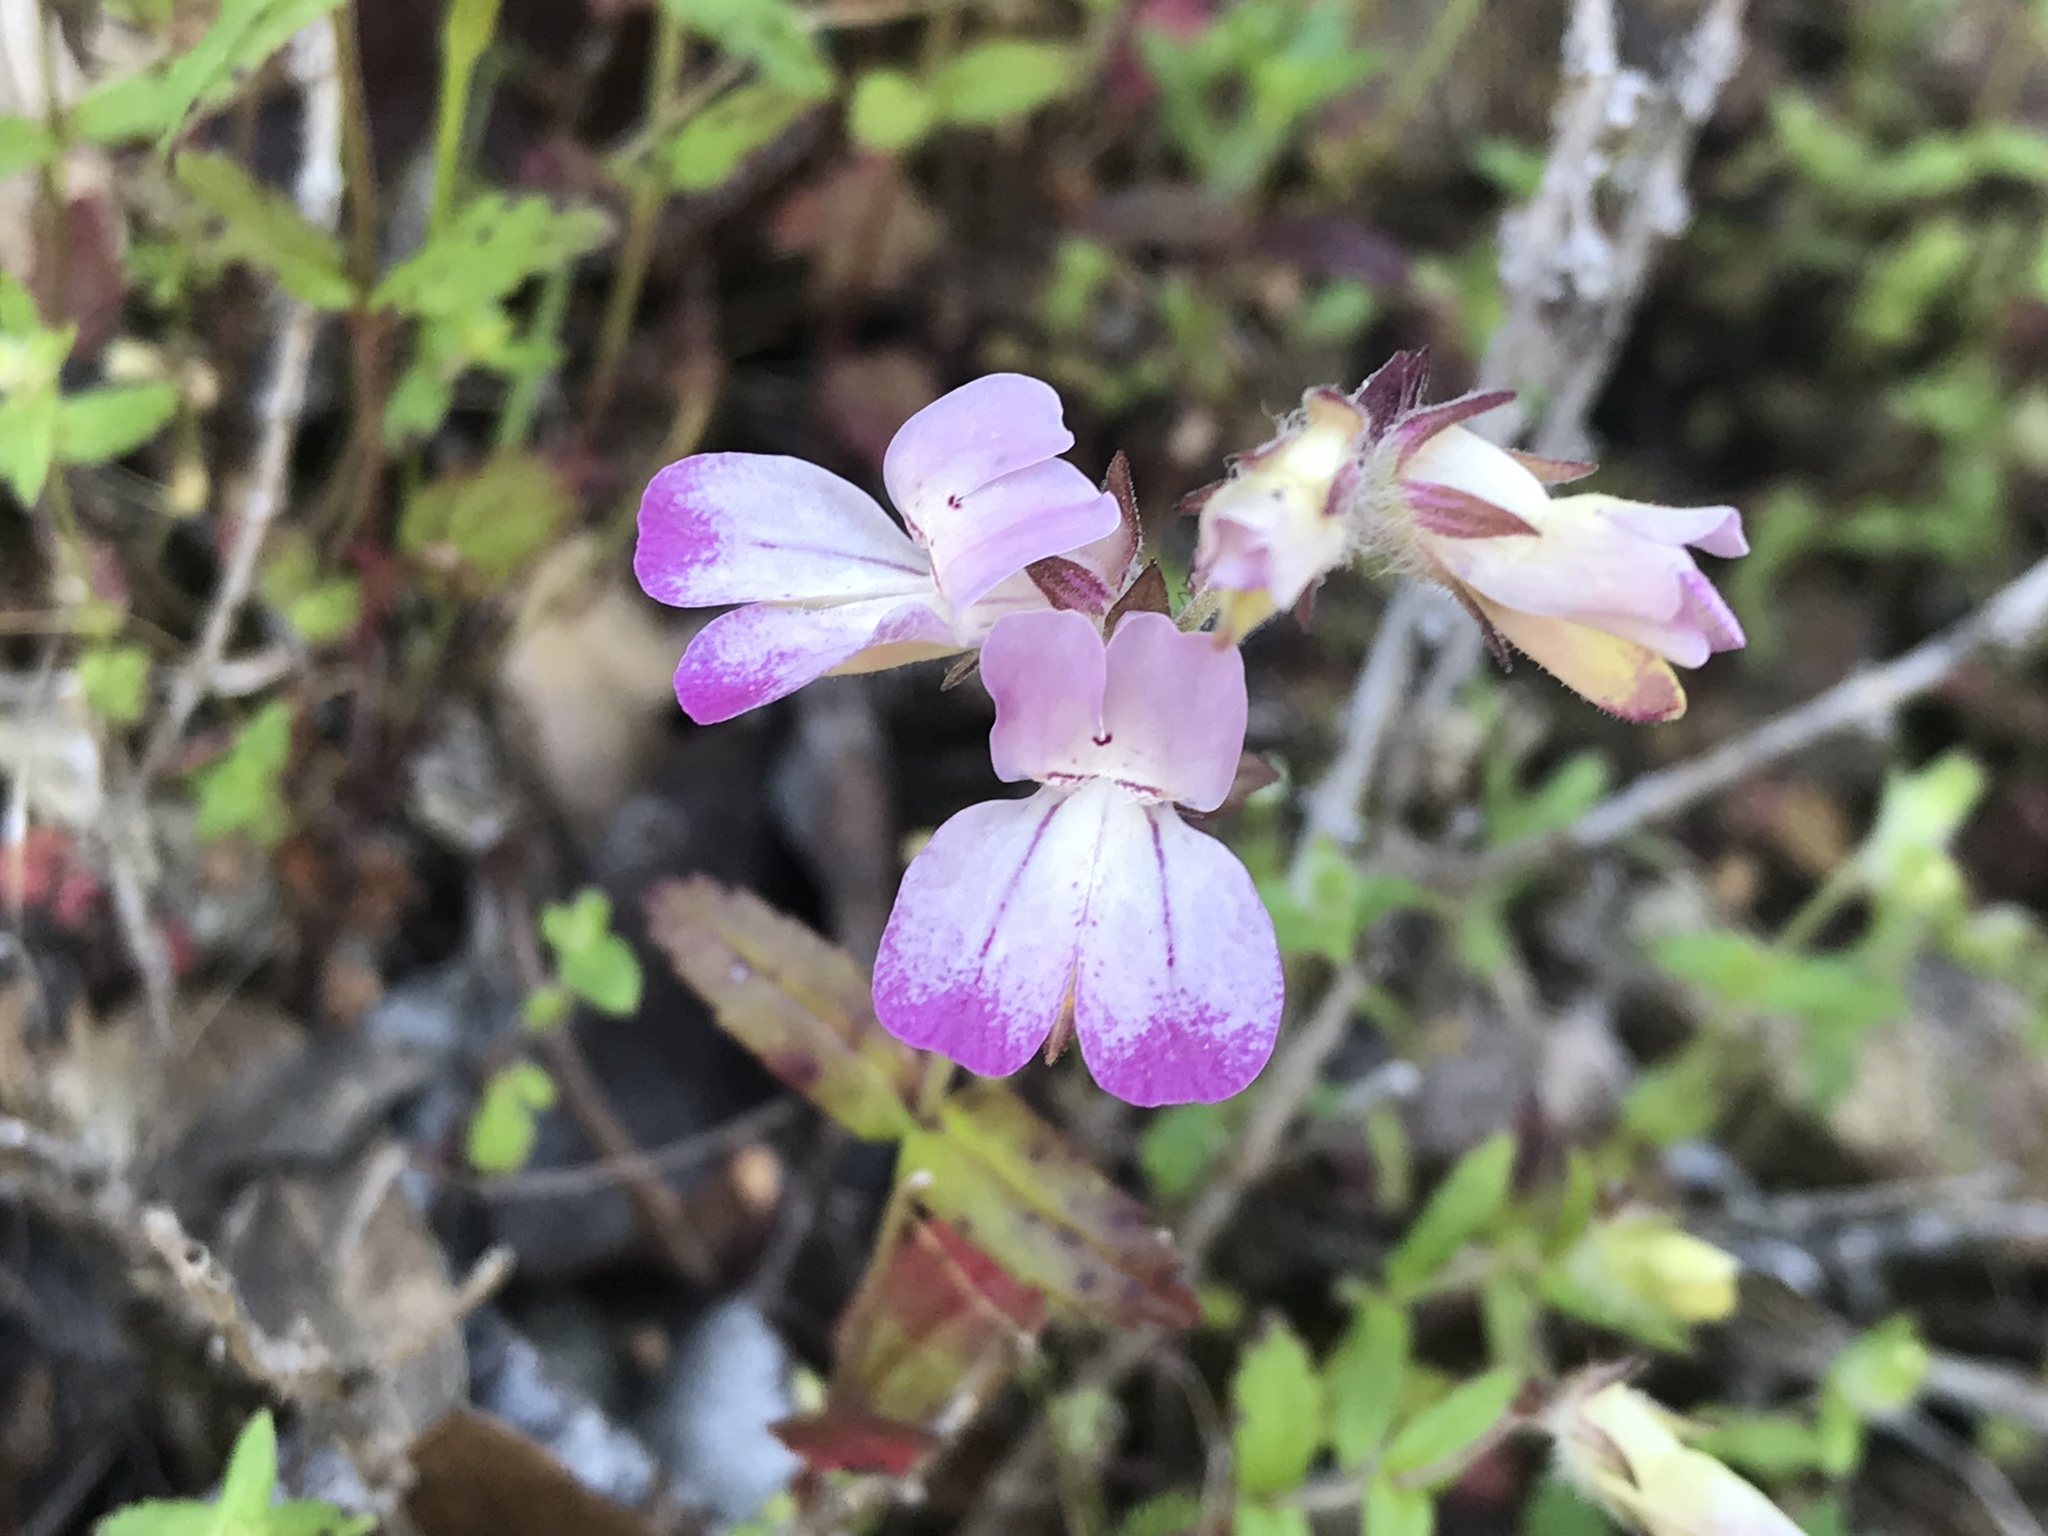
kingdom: Plantae
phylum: Tracheophyta
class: Magnoliopsida
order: Lamiales
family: Plantaginaceae
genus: Collinsia
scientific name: Collinsia heterophylla
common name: Chinese-houses
